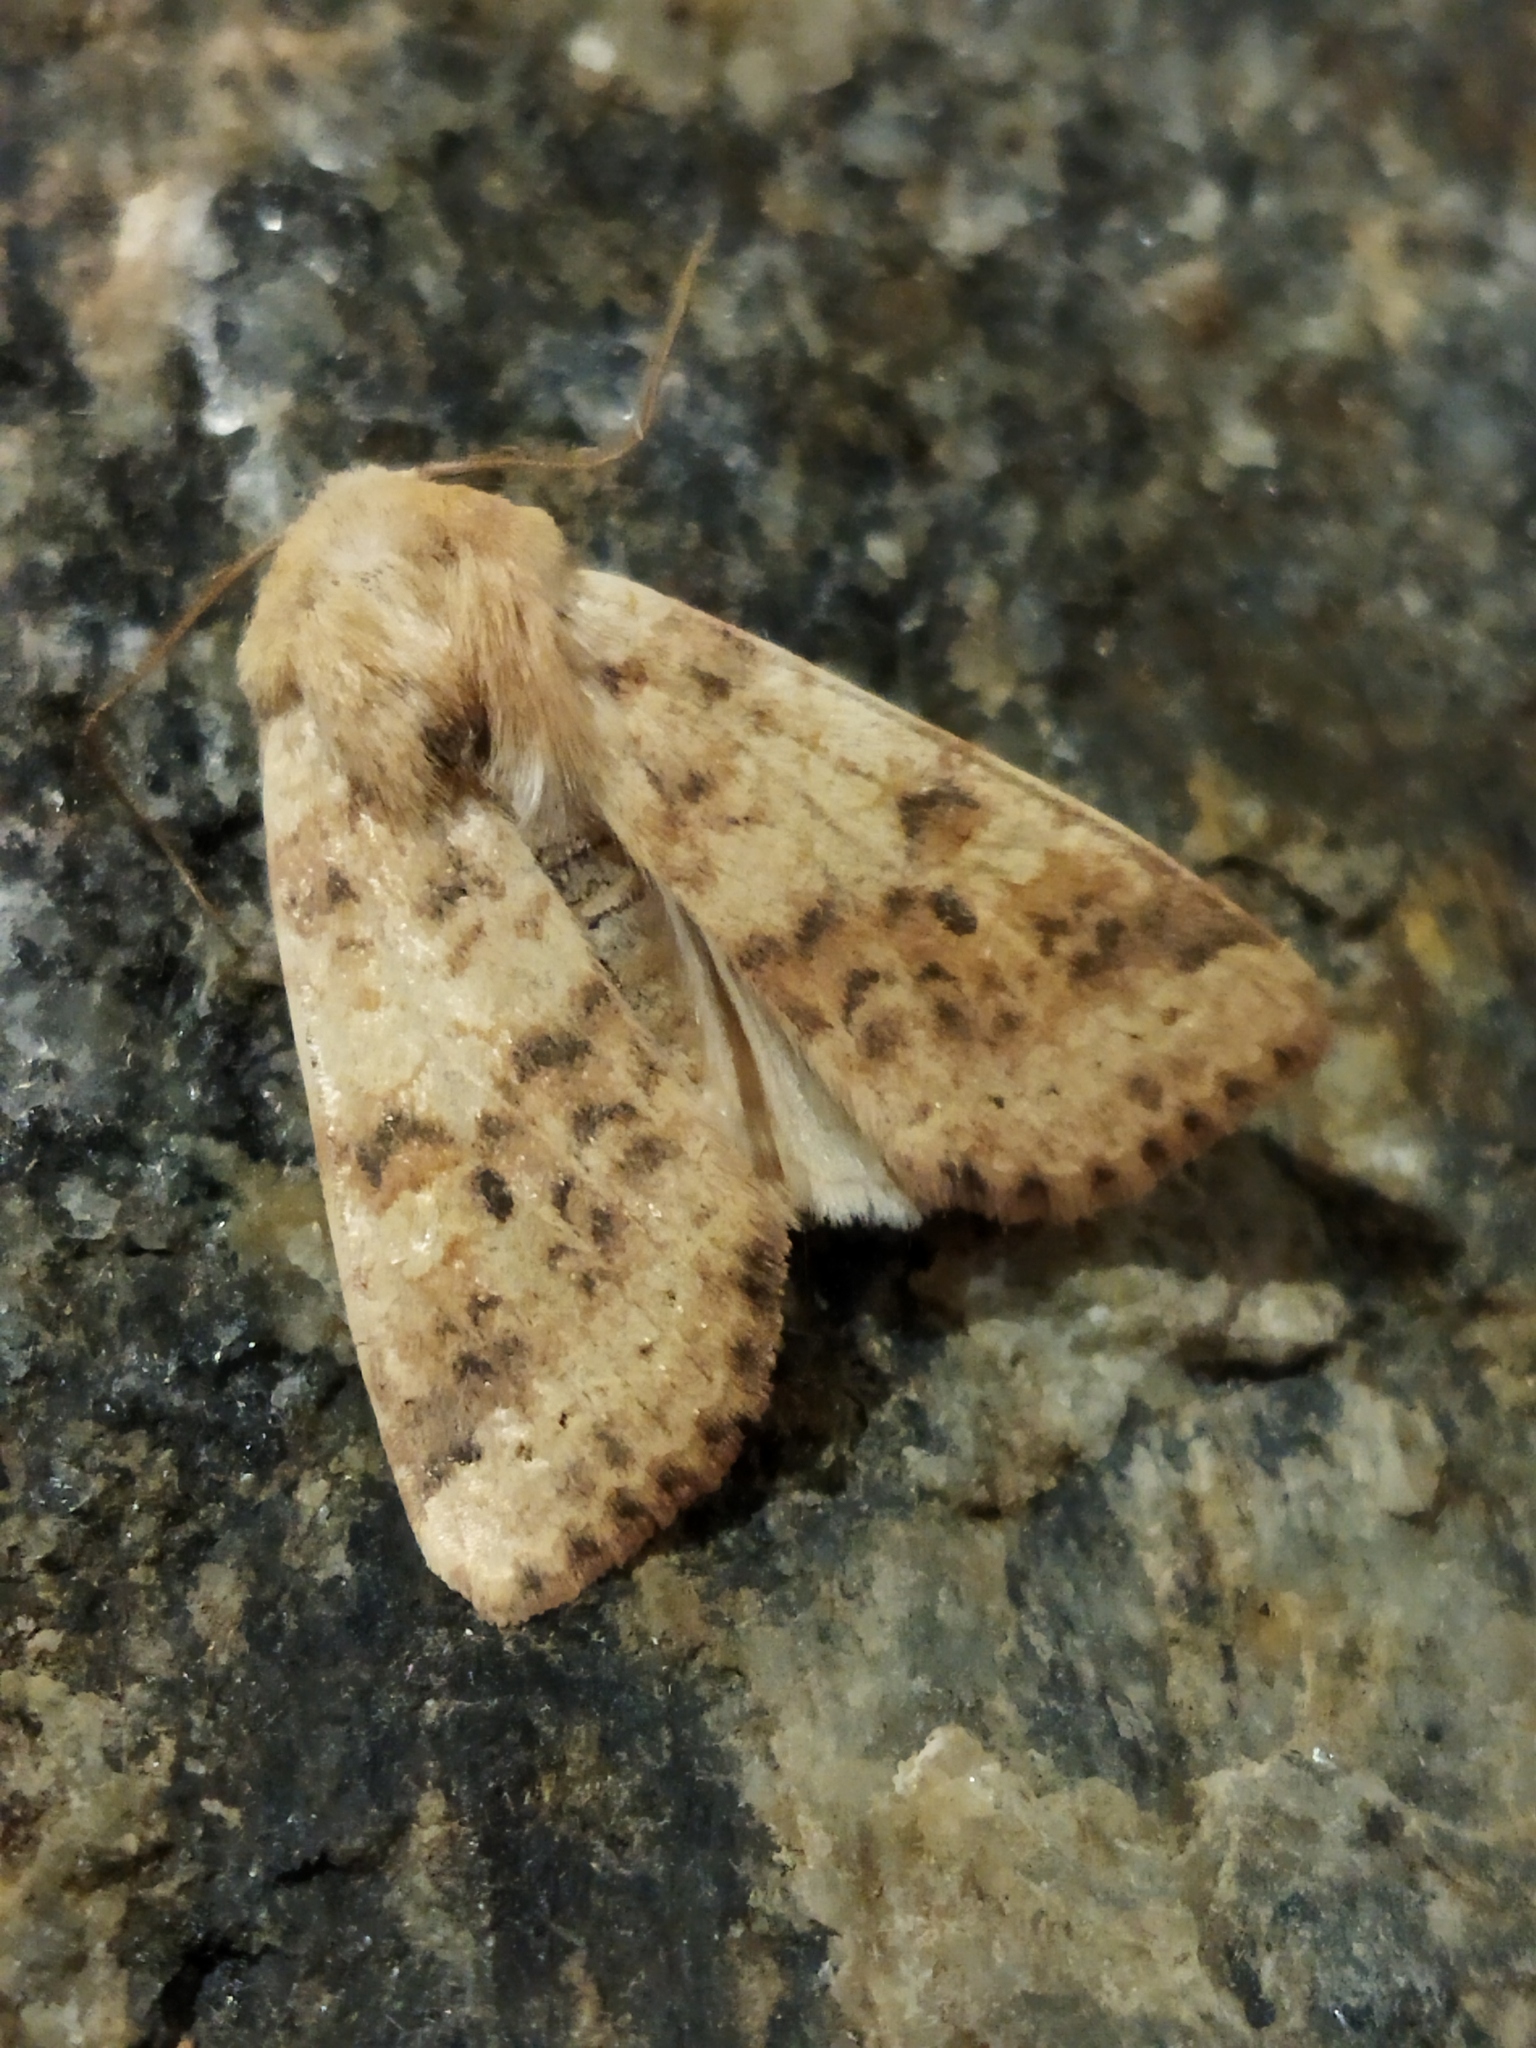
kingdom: Animalia
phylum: Arthropoda
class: Insecta
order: Lepidoptera
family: Noctuidae
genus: Xanthia
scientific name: Xanthia gilvago
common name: Dusky-lemon sallow
